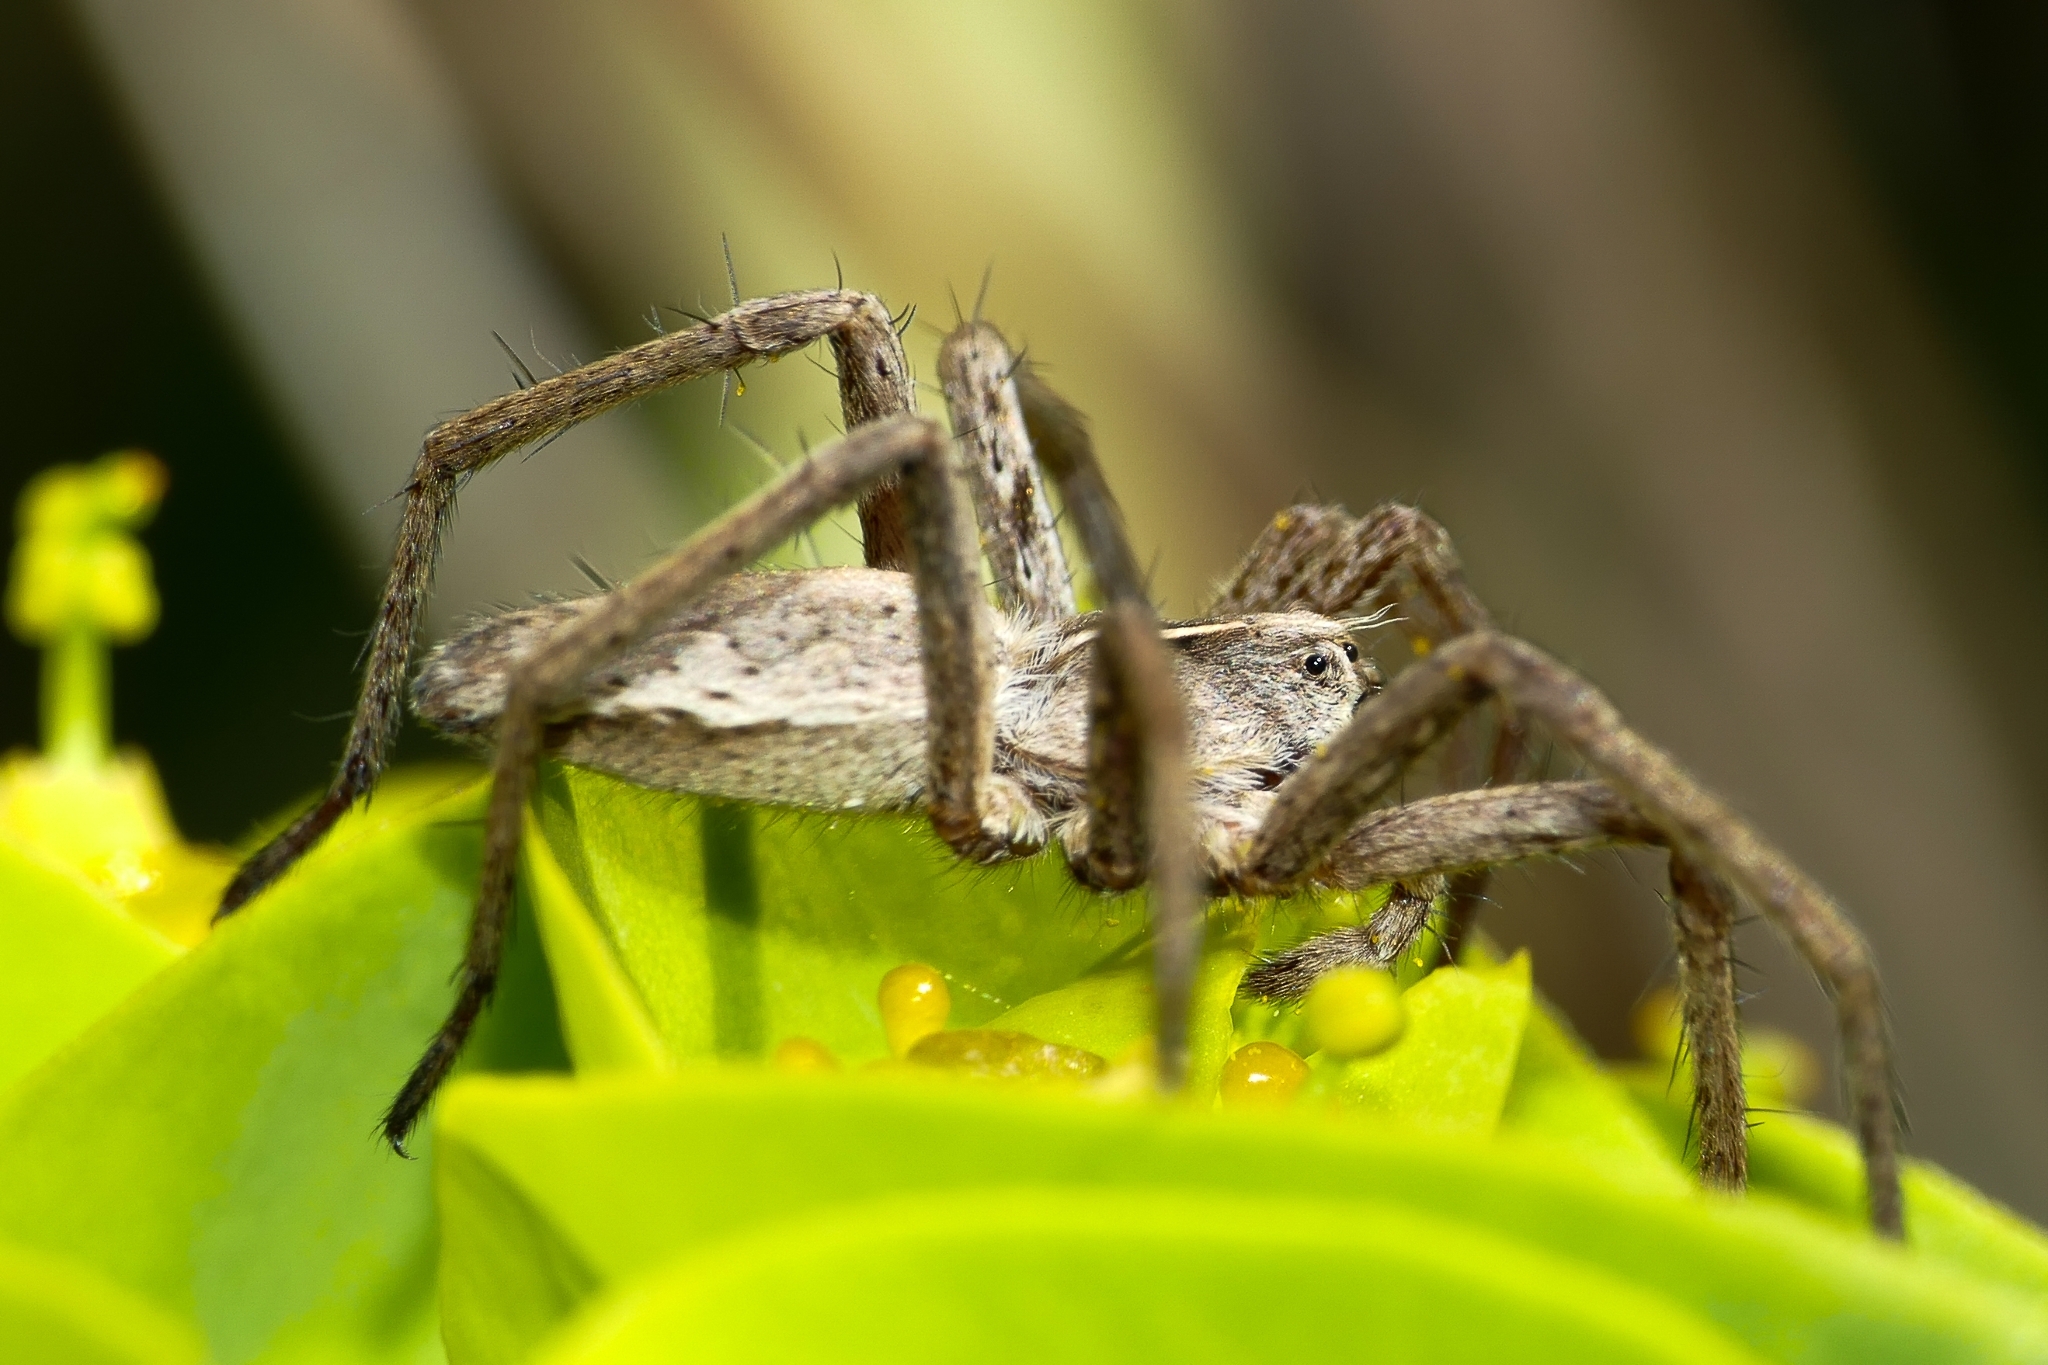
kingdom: Animalia
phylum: Arthropoda
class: Arachnida
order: Araneae
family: Pisauridae
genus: Pisaura
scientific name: Pisaura mirabilis
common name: Tent spider
